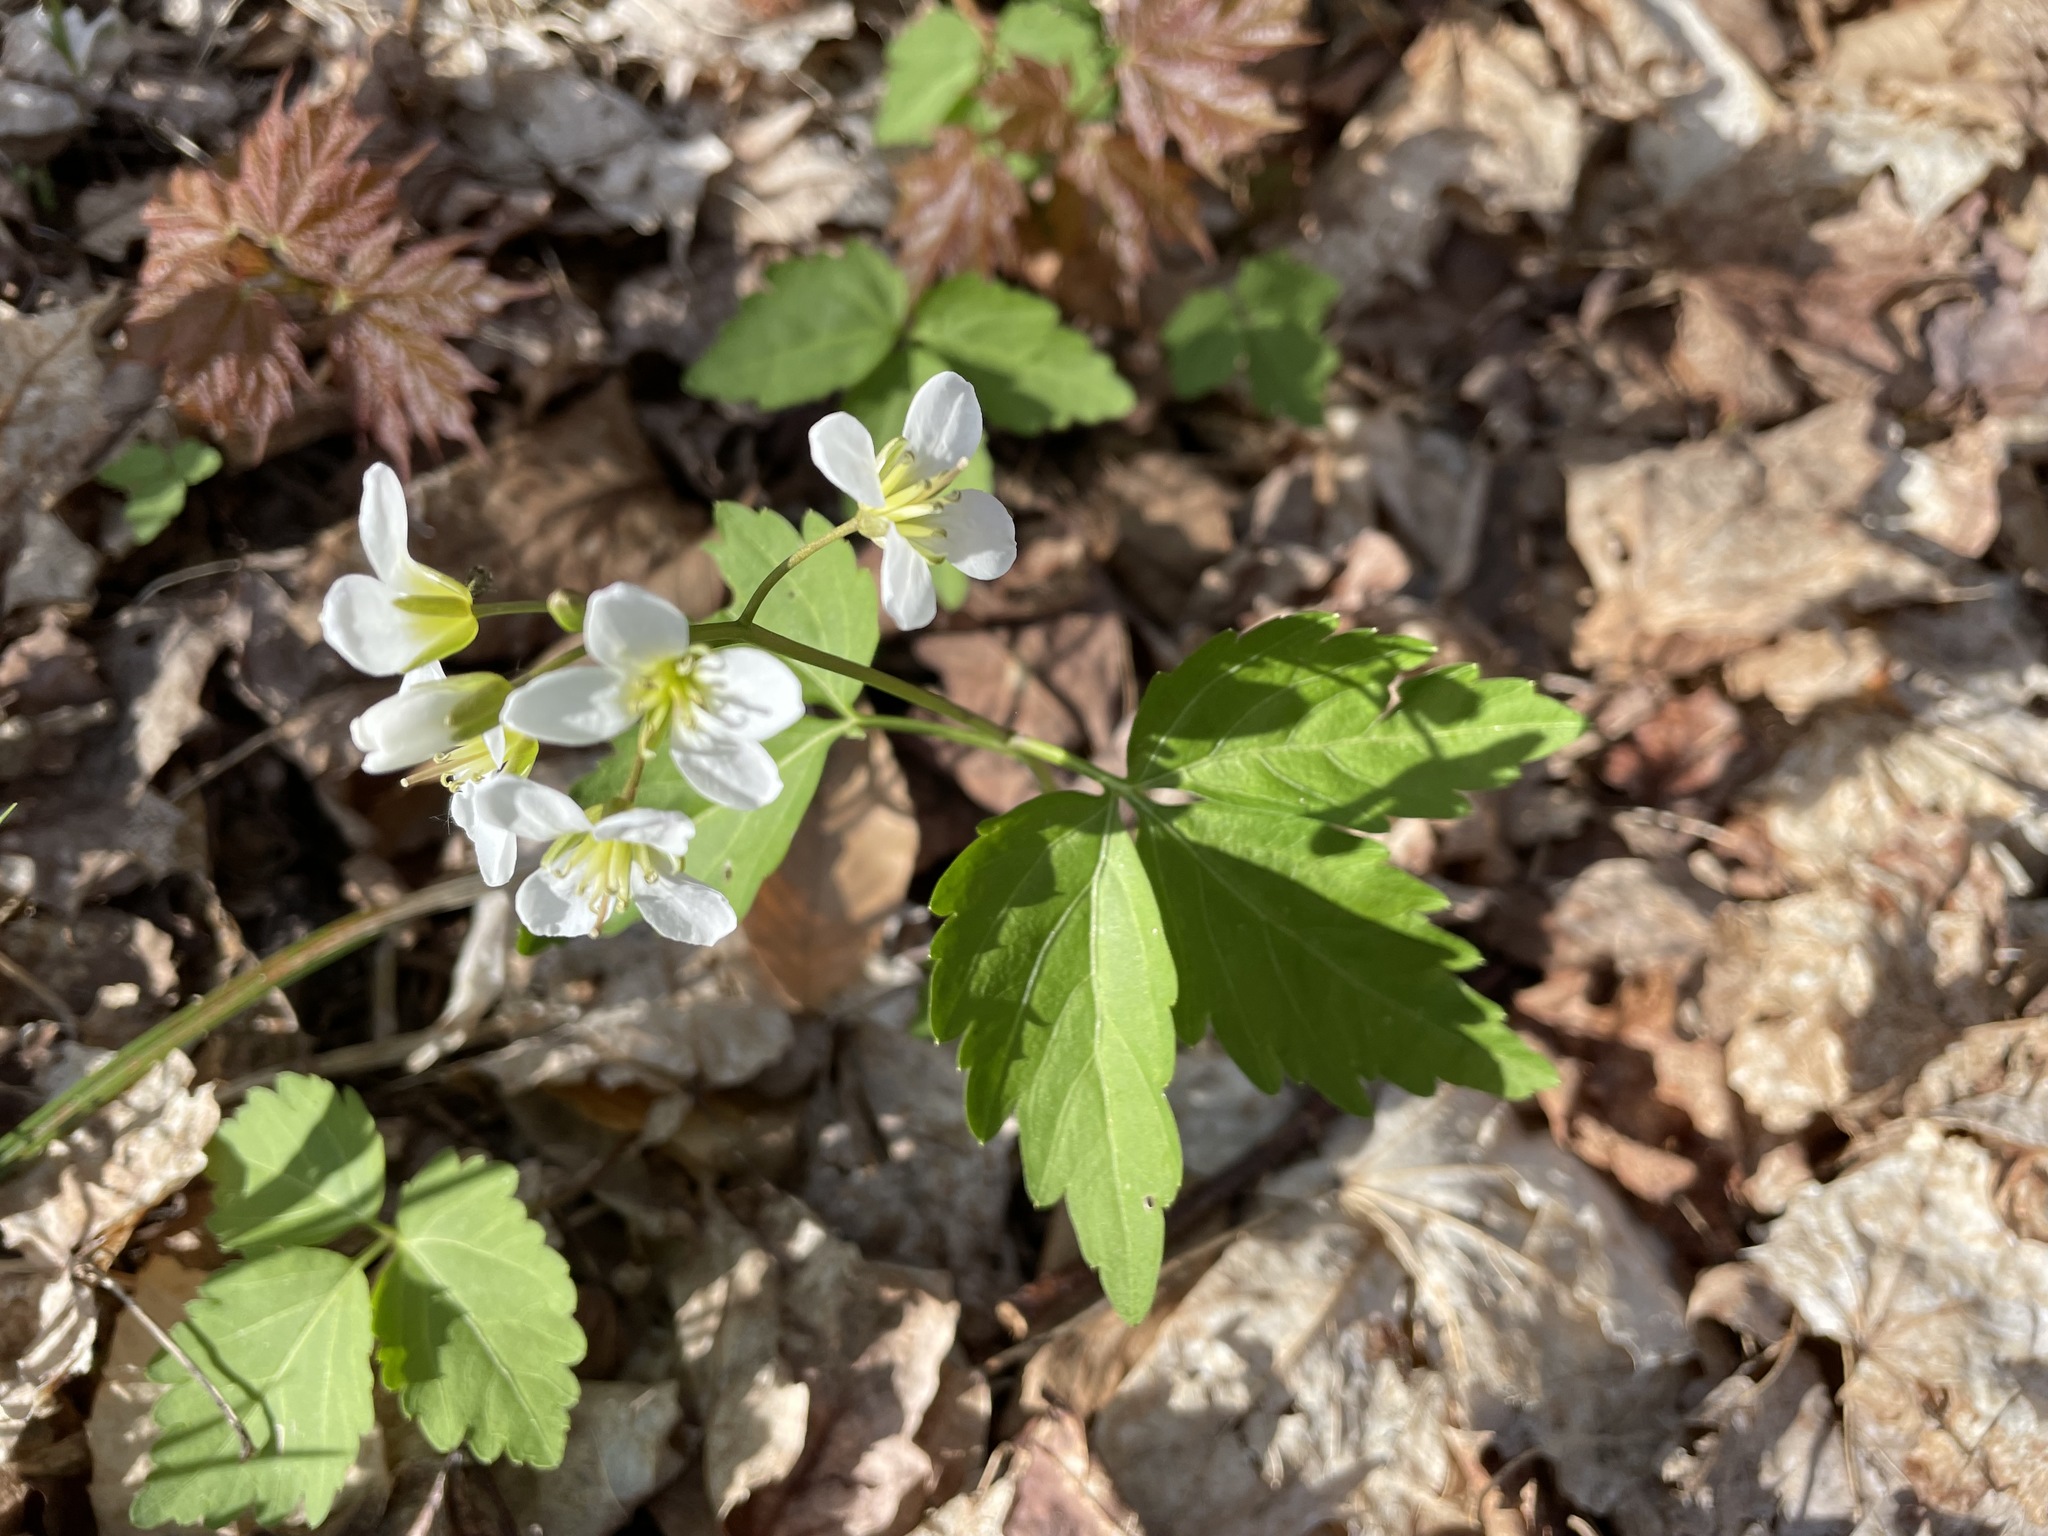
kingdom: Plantae
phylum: Tracheophyta
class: Magnoliopsida
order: Brassicales
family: Brassicaceae
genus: Cardamine
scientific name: Cardamine diphylla
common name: Broad-leaved toothwort
